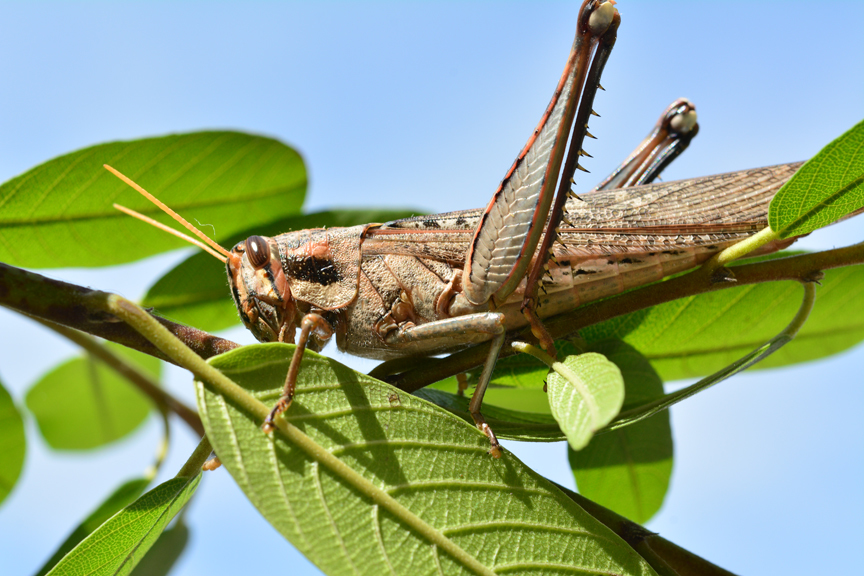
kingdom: Animalia
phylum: Arthropoda
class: Insecta
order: Orthoptera
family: Acrididae
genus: Schistocerca
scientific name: Schistocerca nitens
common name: Vagrant grasshopper
